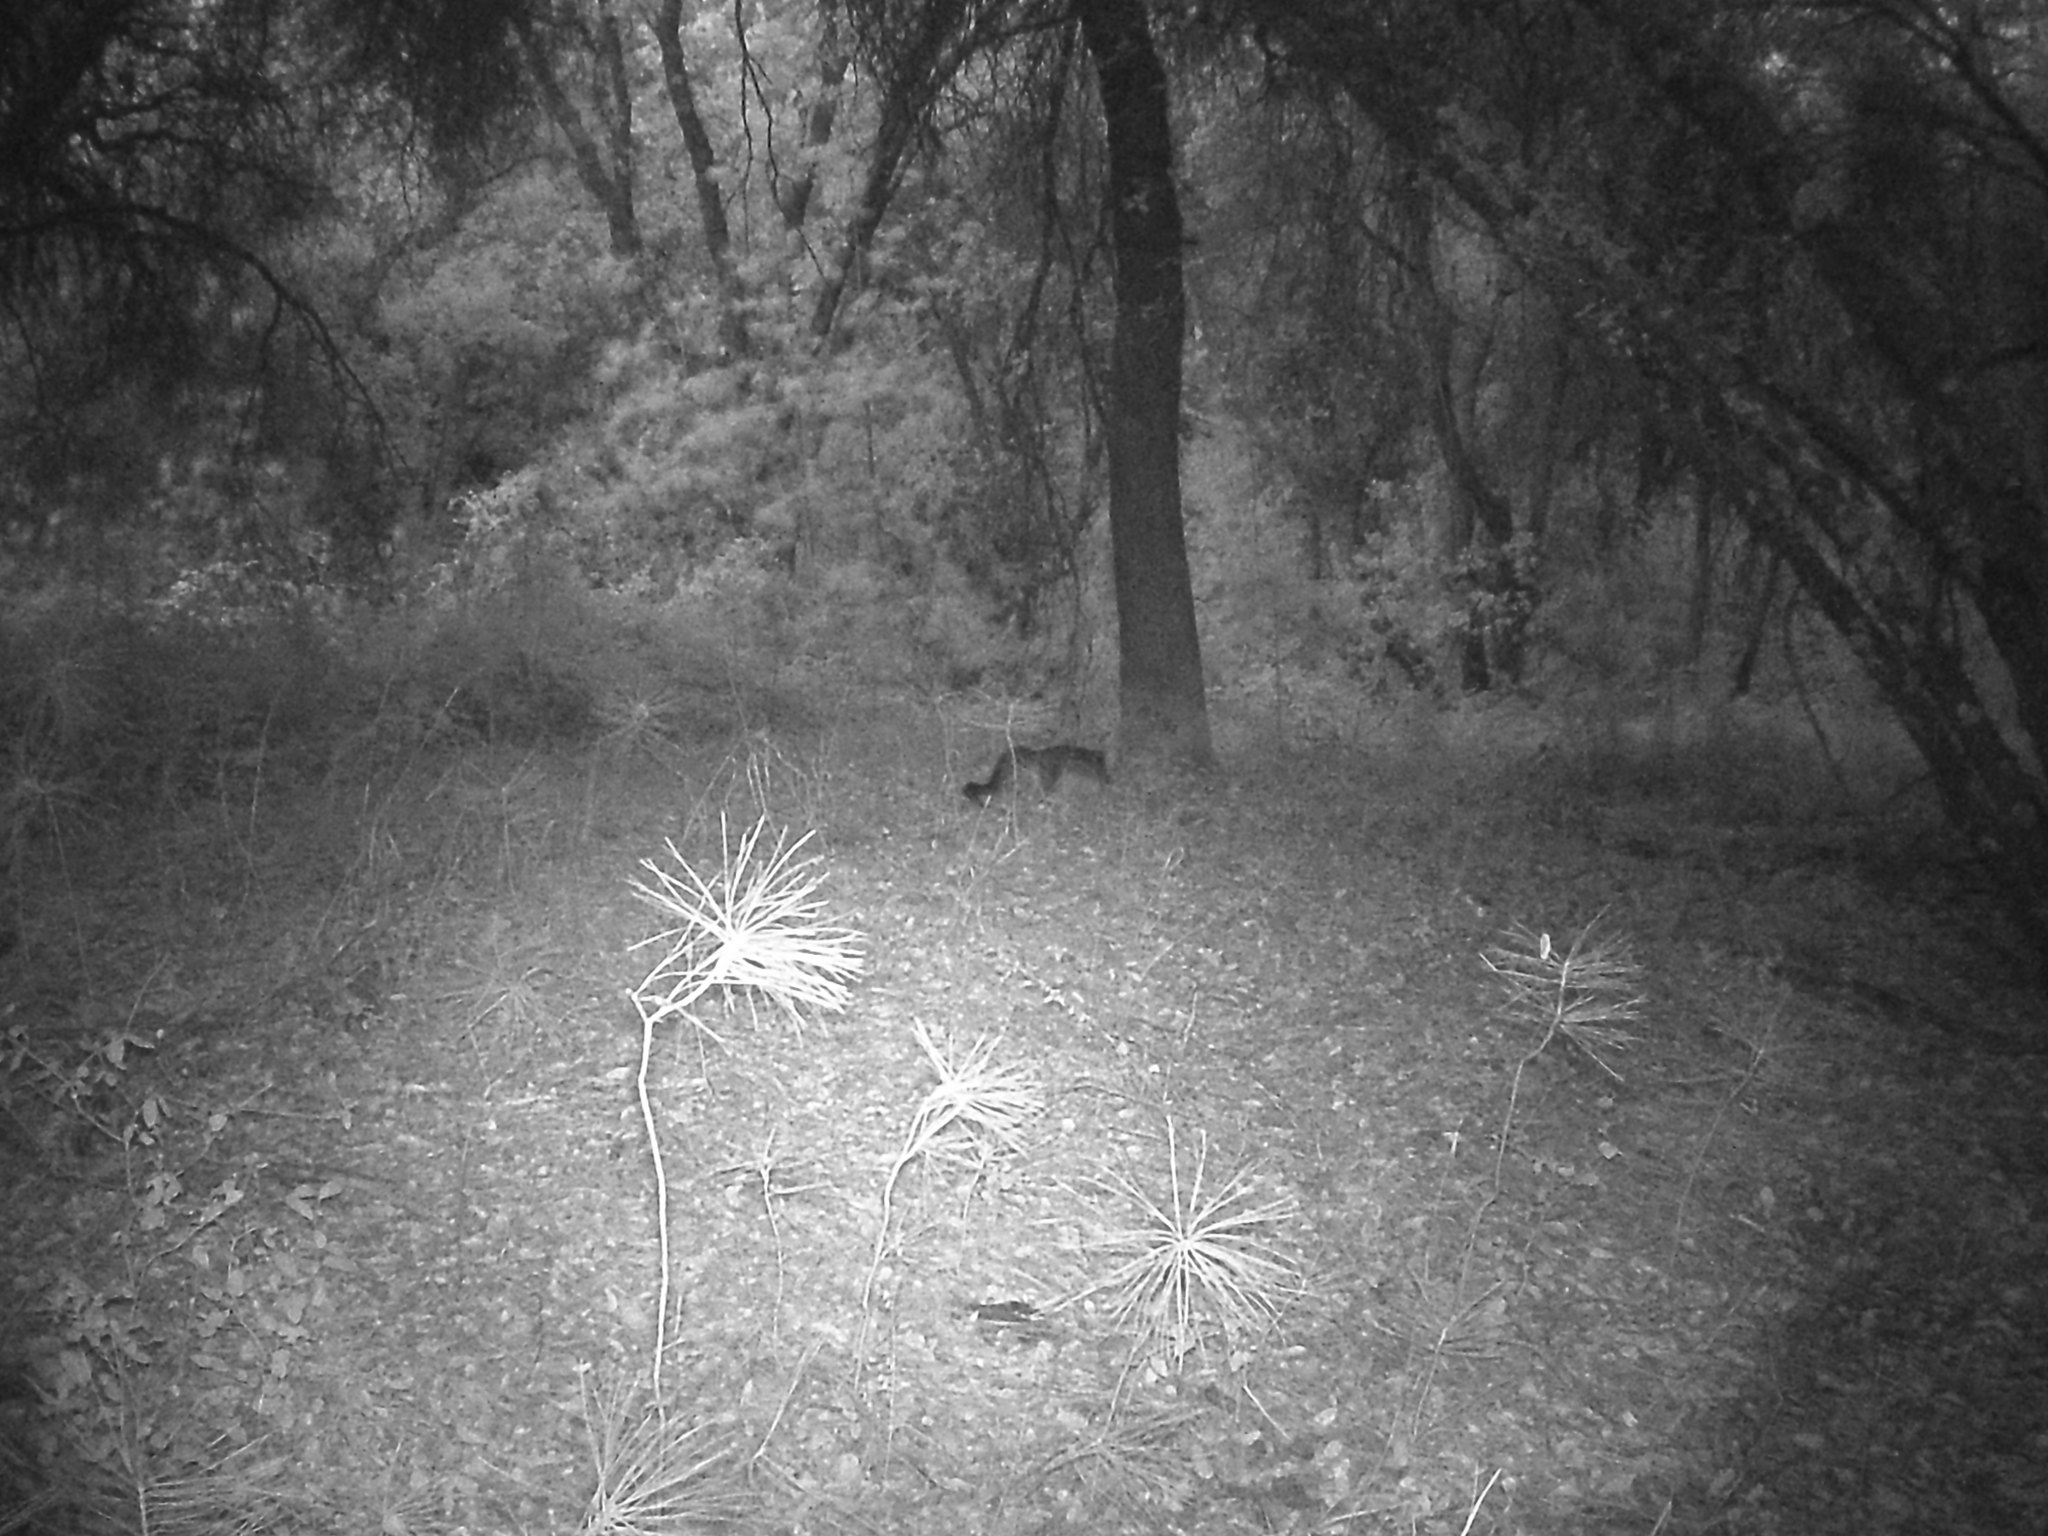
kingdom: Animalia
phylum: Chordata
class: Mammalia
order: Carnivora
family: Canidae
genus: Urocyon
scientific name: Urocyon cinereoargenteus
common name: Gray fox
